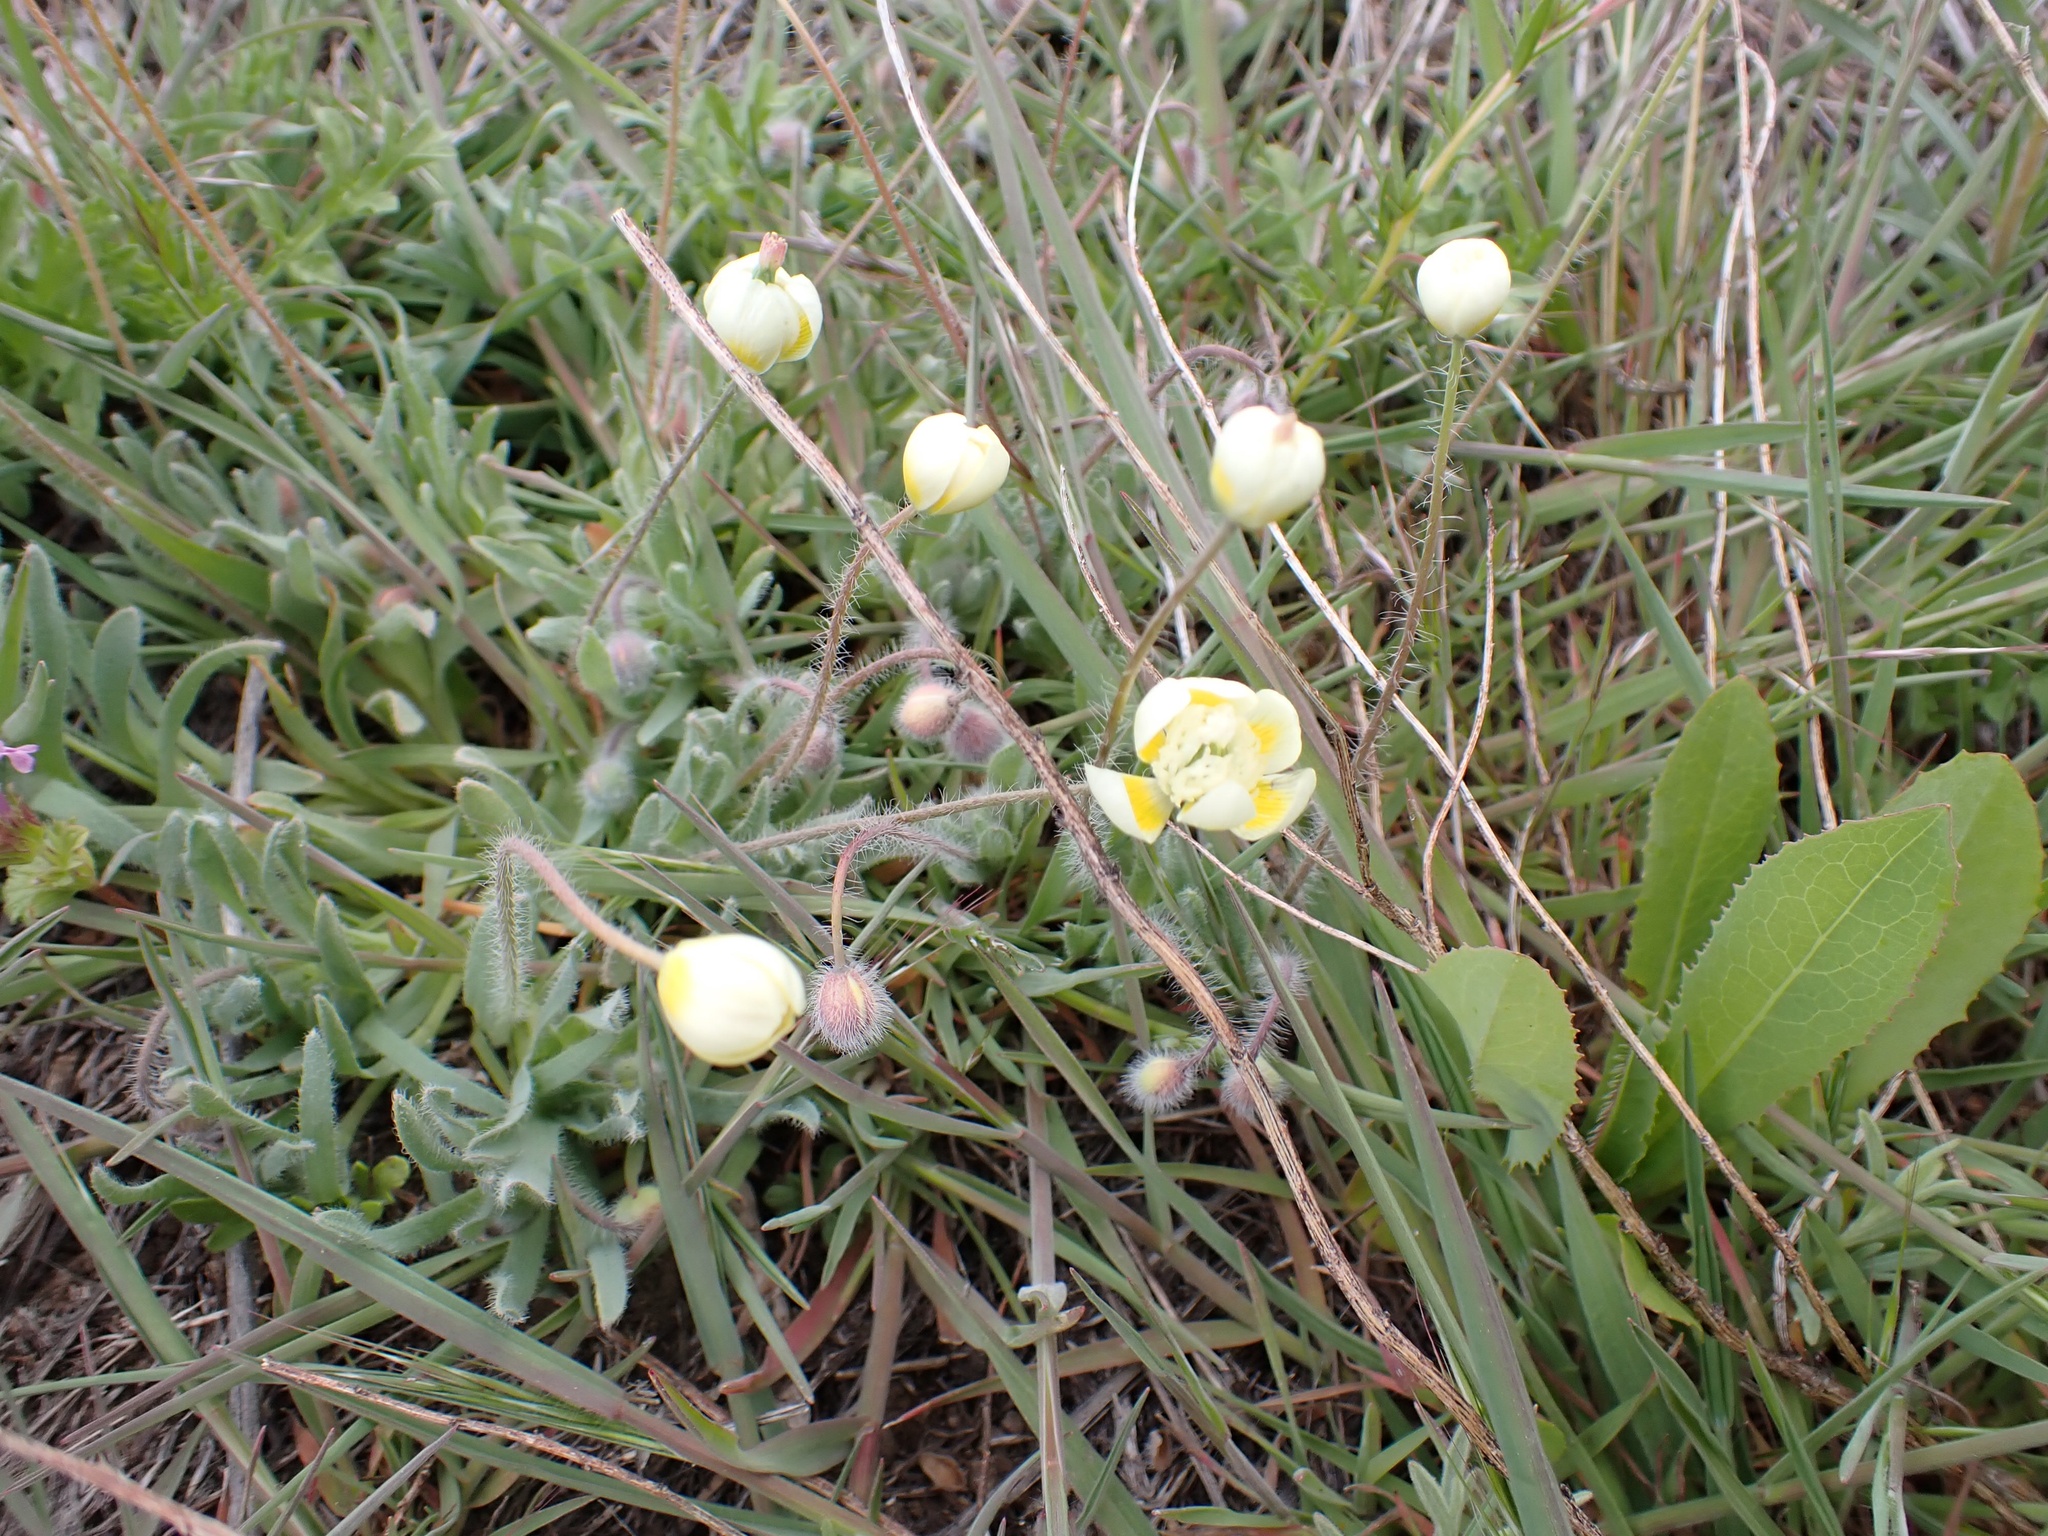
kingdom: Plantae
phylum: Tracheophyta
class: Magnoliopsida
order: Ranunculales
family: Papaveraceae
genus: Platystemon
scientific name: Platystemon californicus
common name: Cream-cups
